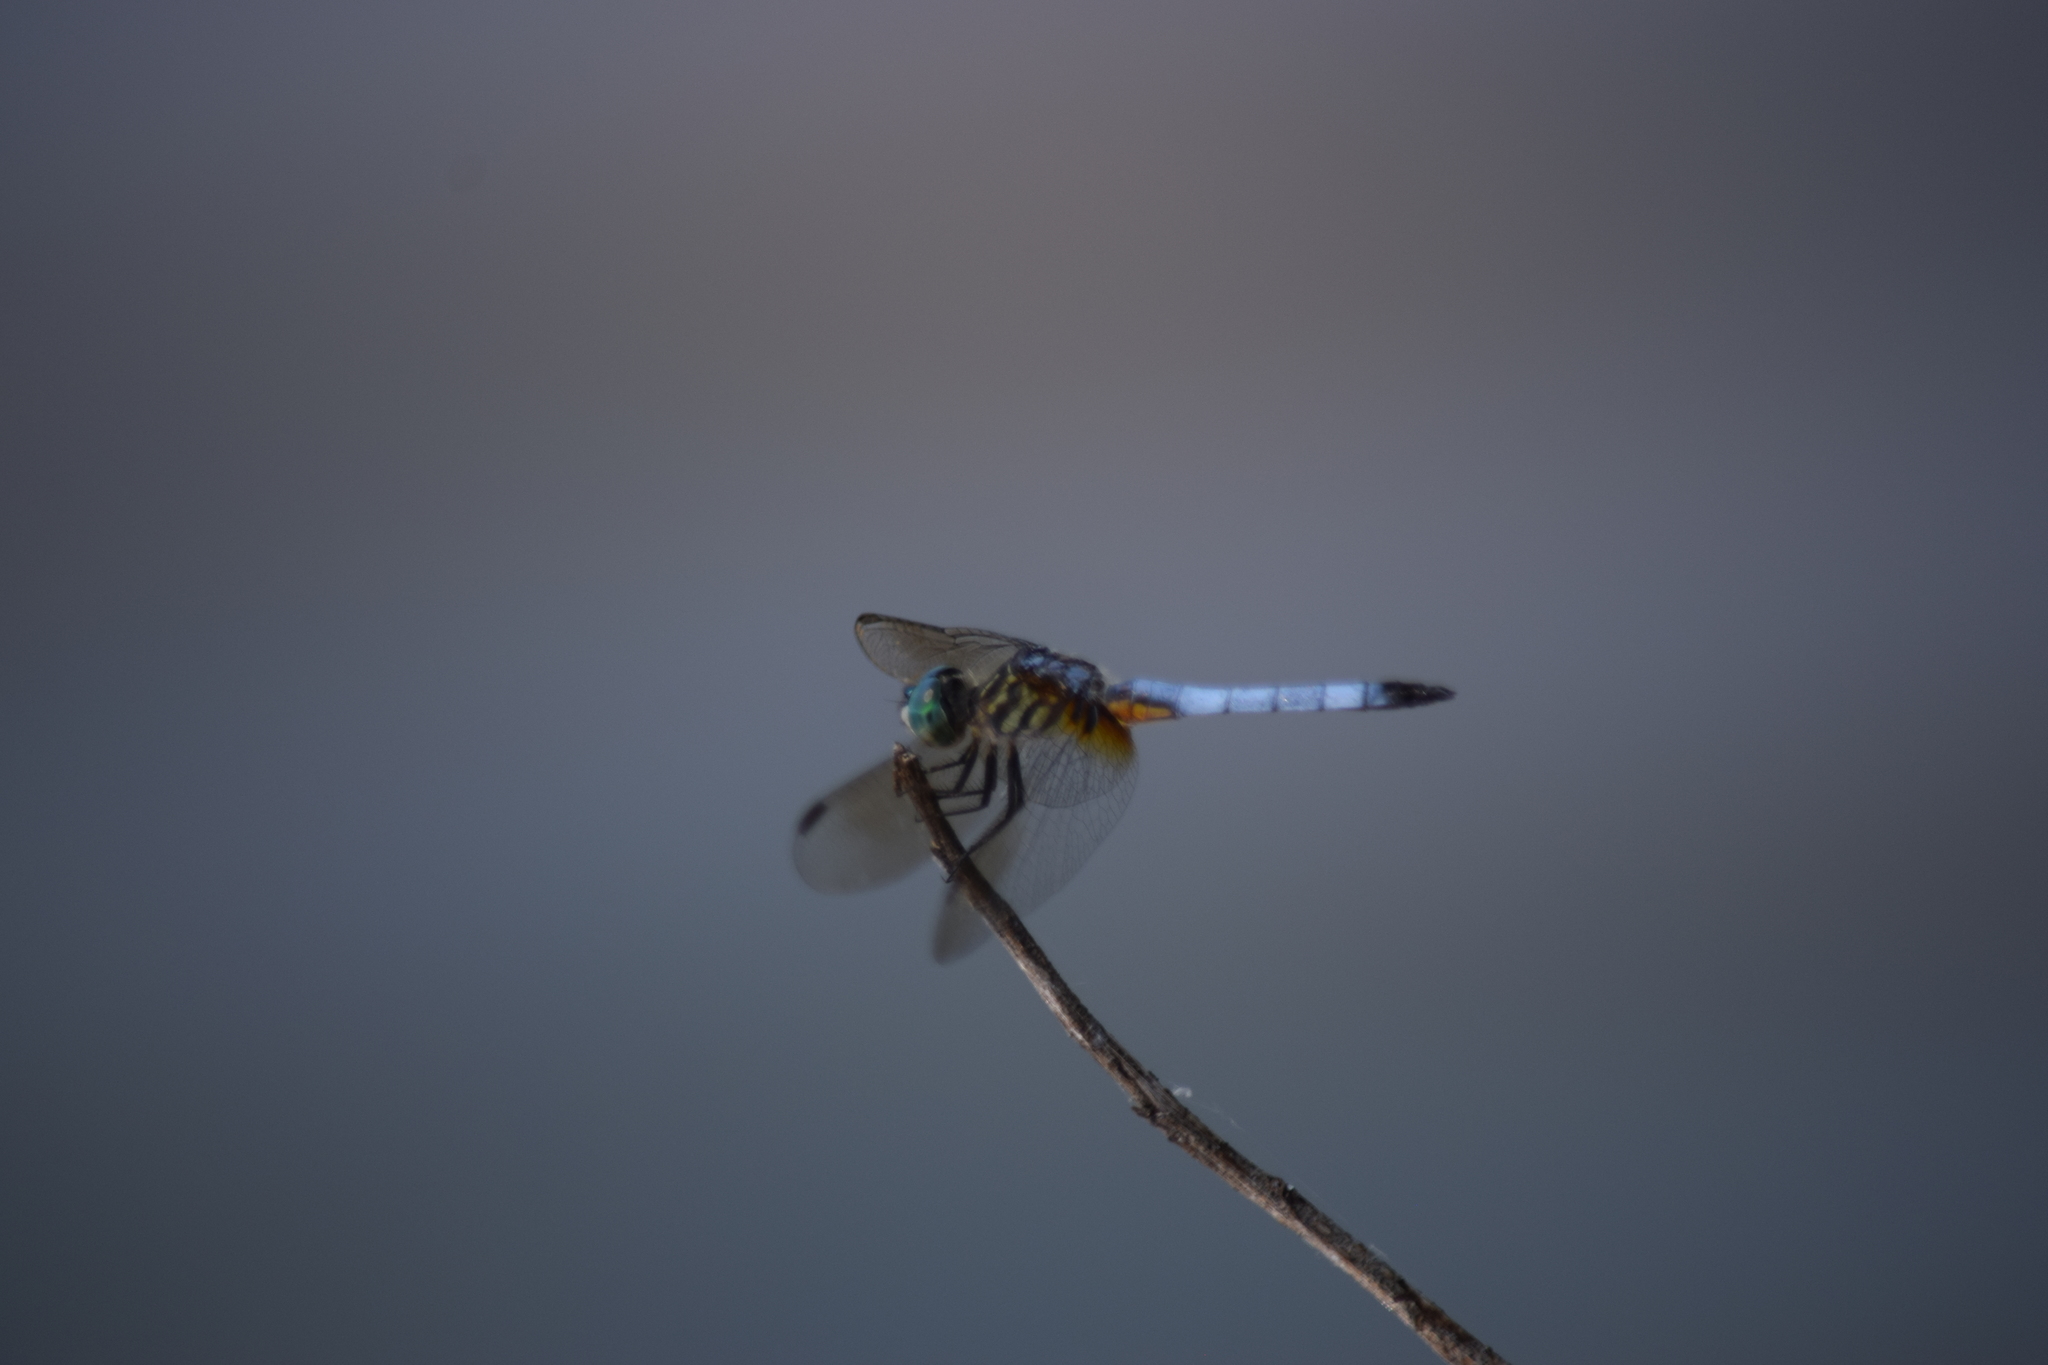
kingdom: Animalia
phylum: Arthropoda
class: Insecta
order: Odonata
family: Libellulidae
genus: Pachydiplax
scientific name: Pachydiplax longipennis
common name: Blue dasher
